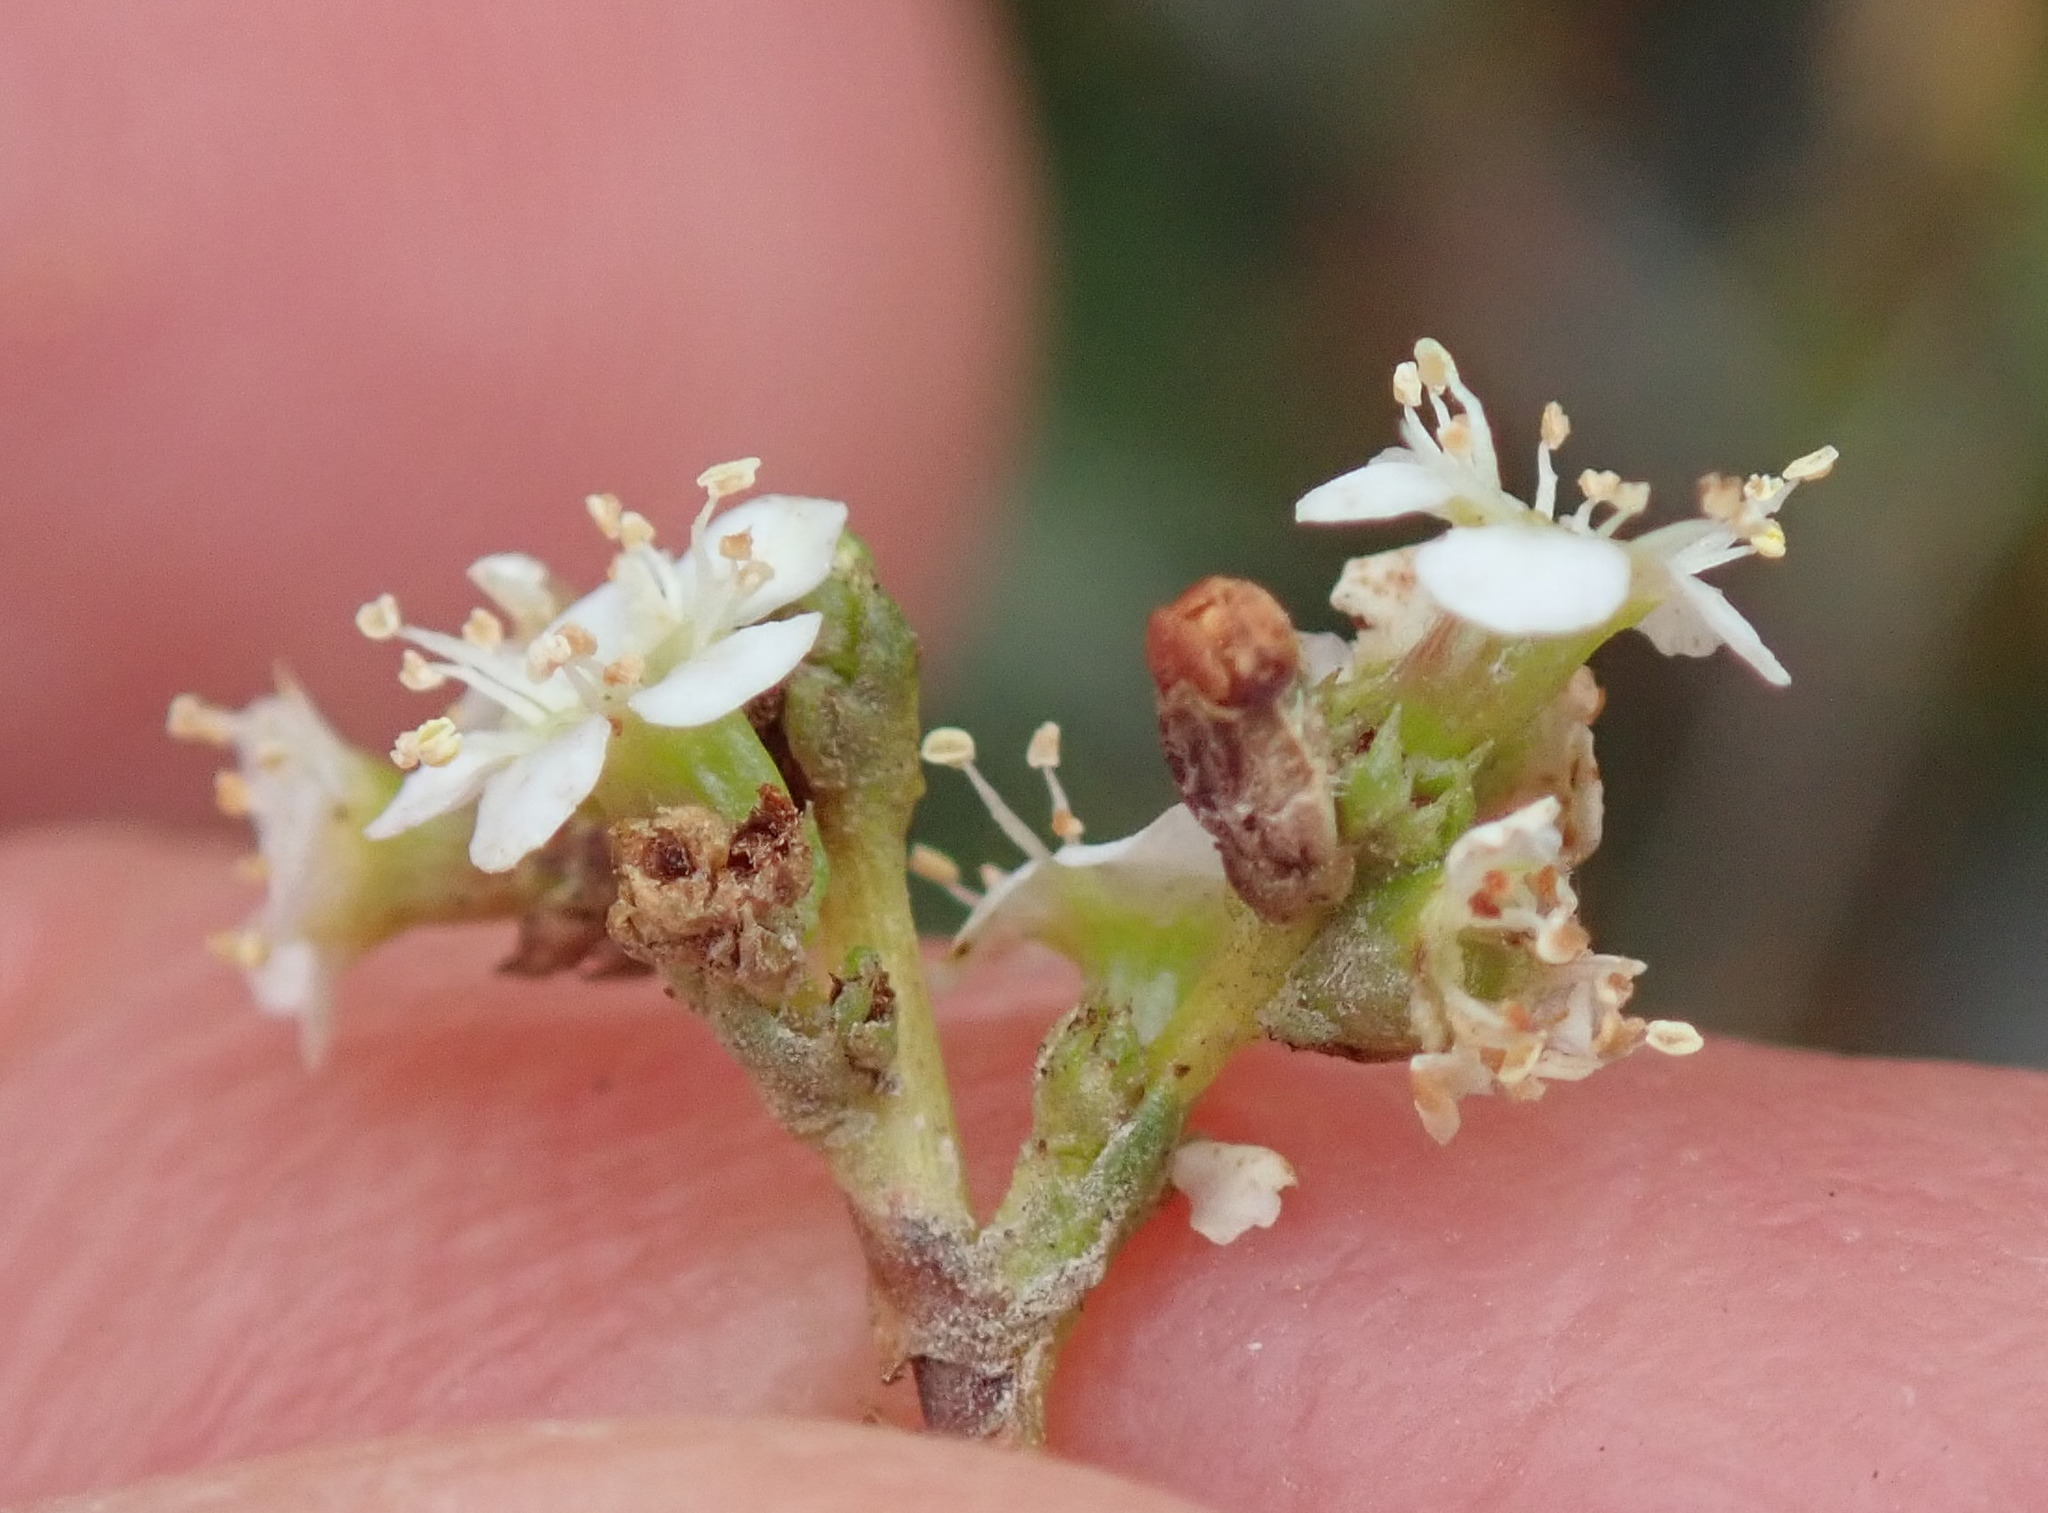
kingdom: Plantae
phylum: Tracheophyta
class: Magnoliopsida
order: Rosales
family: Rosaceae
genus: Adenostoma
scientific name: Adenostoma fasciculatum
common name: Chamise
